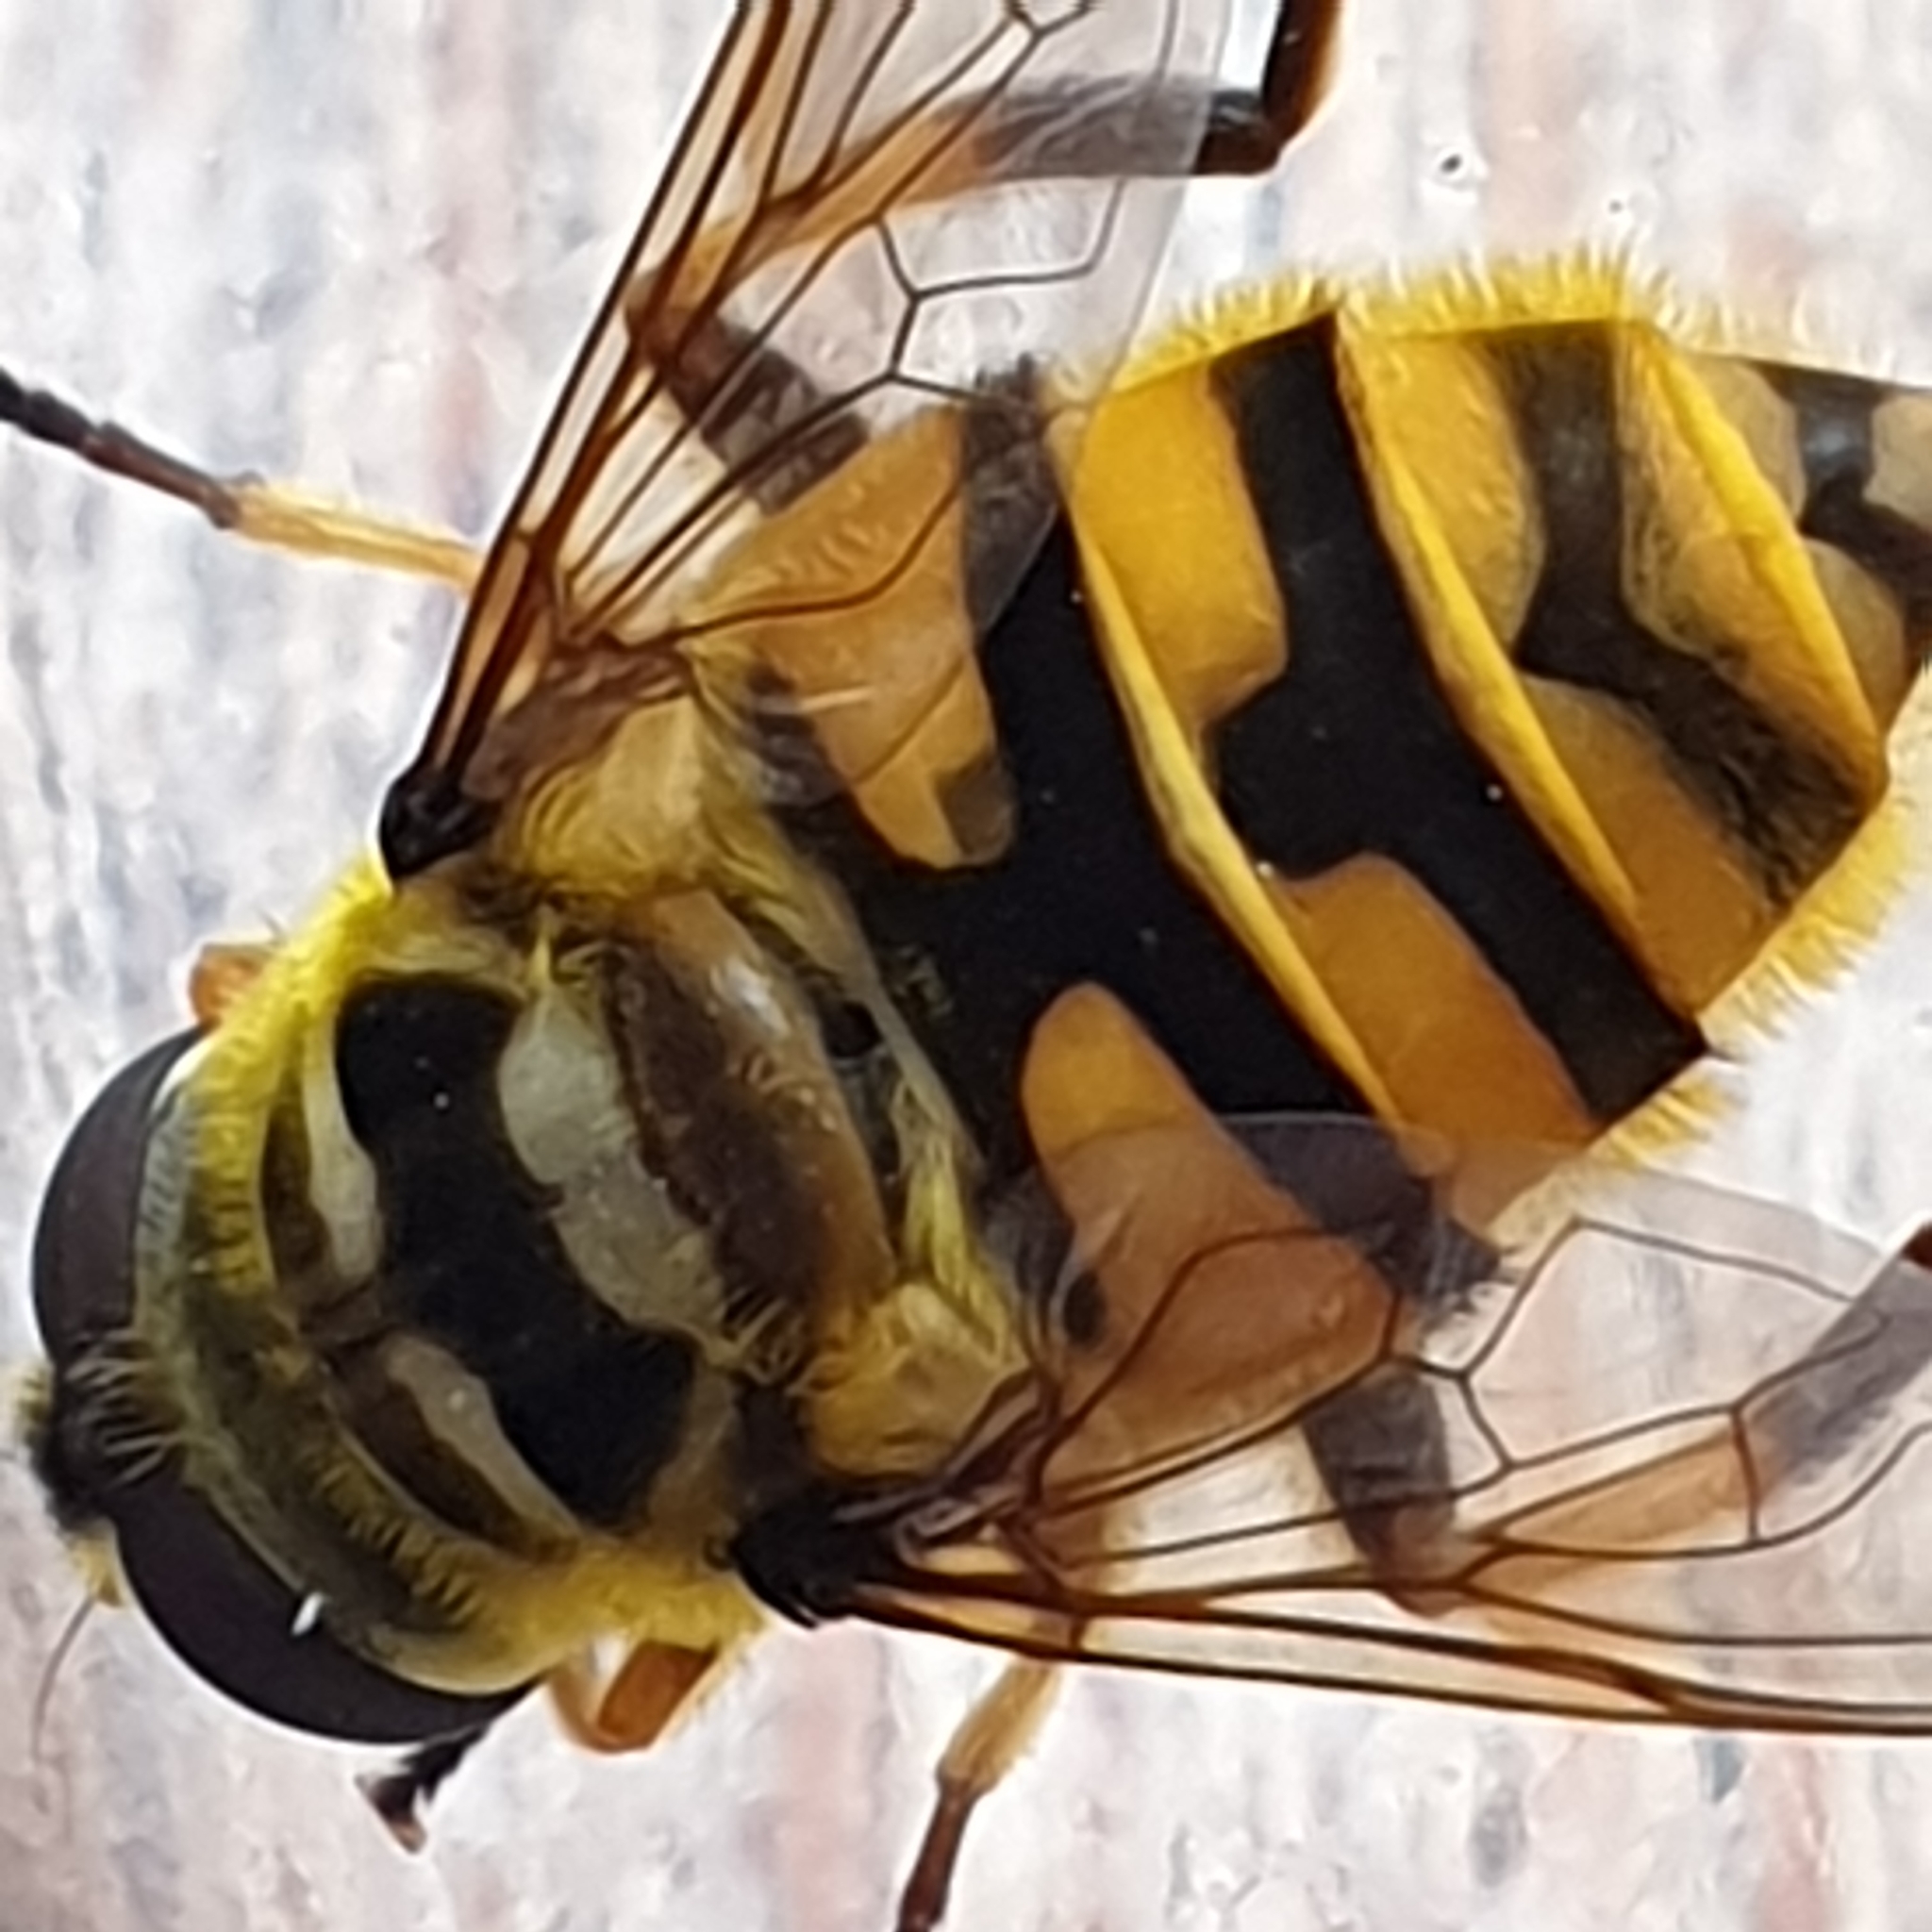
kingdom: Animalia
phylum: Arthropoda
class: Insecta
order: Diptera
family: Syrphidae
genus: Myathropa
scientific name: Myathropa florea
